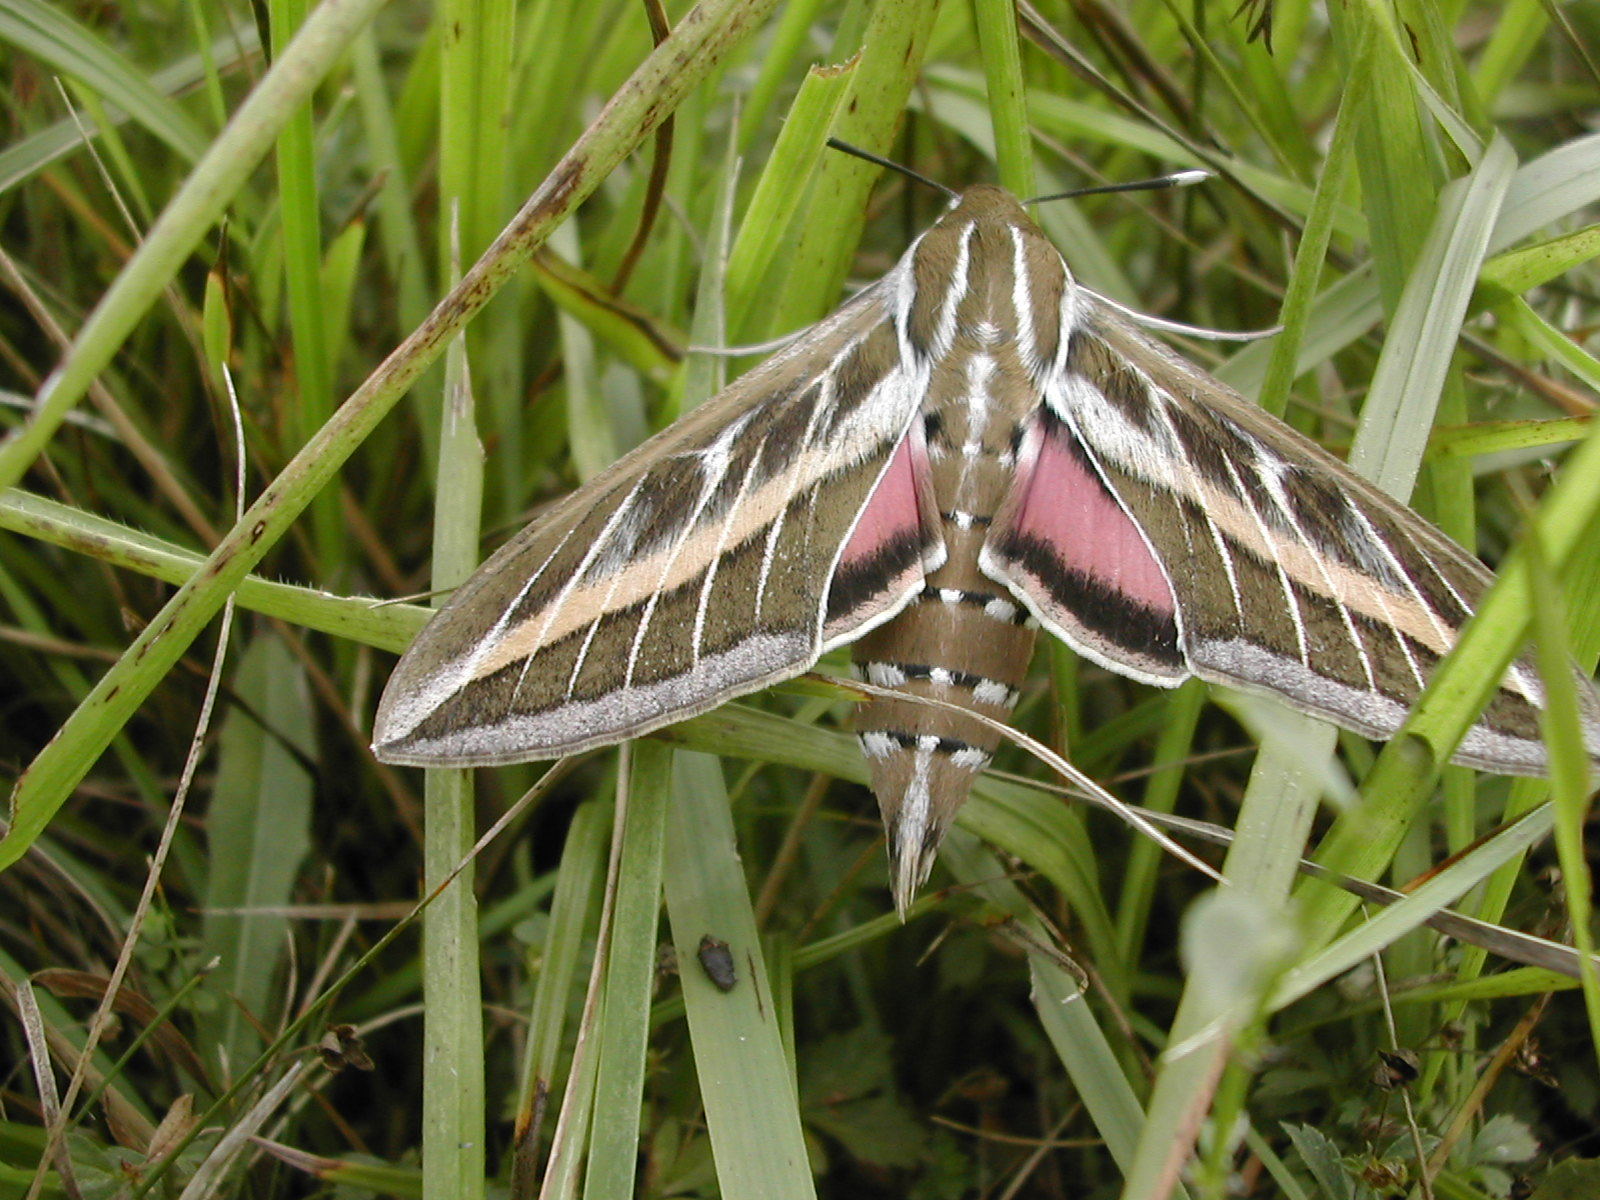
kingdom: Animalia
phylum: Arthropoda
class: Insecta
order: Lepidoptera
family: Sphingidae
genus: Hyles
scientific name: Hyles livornica
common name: Striped hawk-moth
